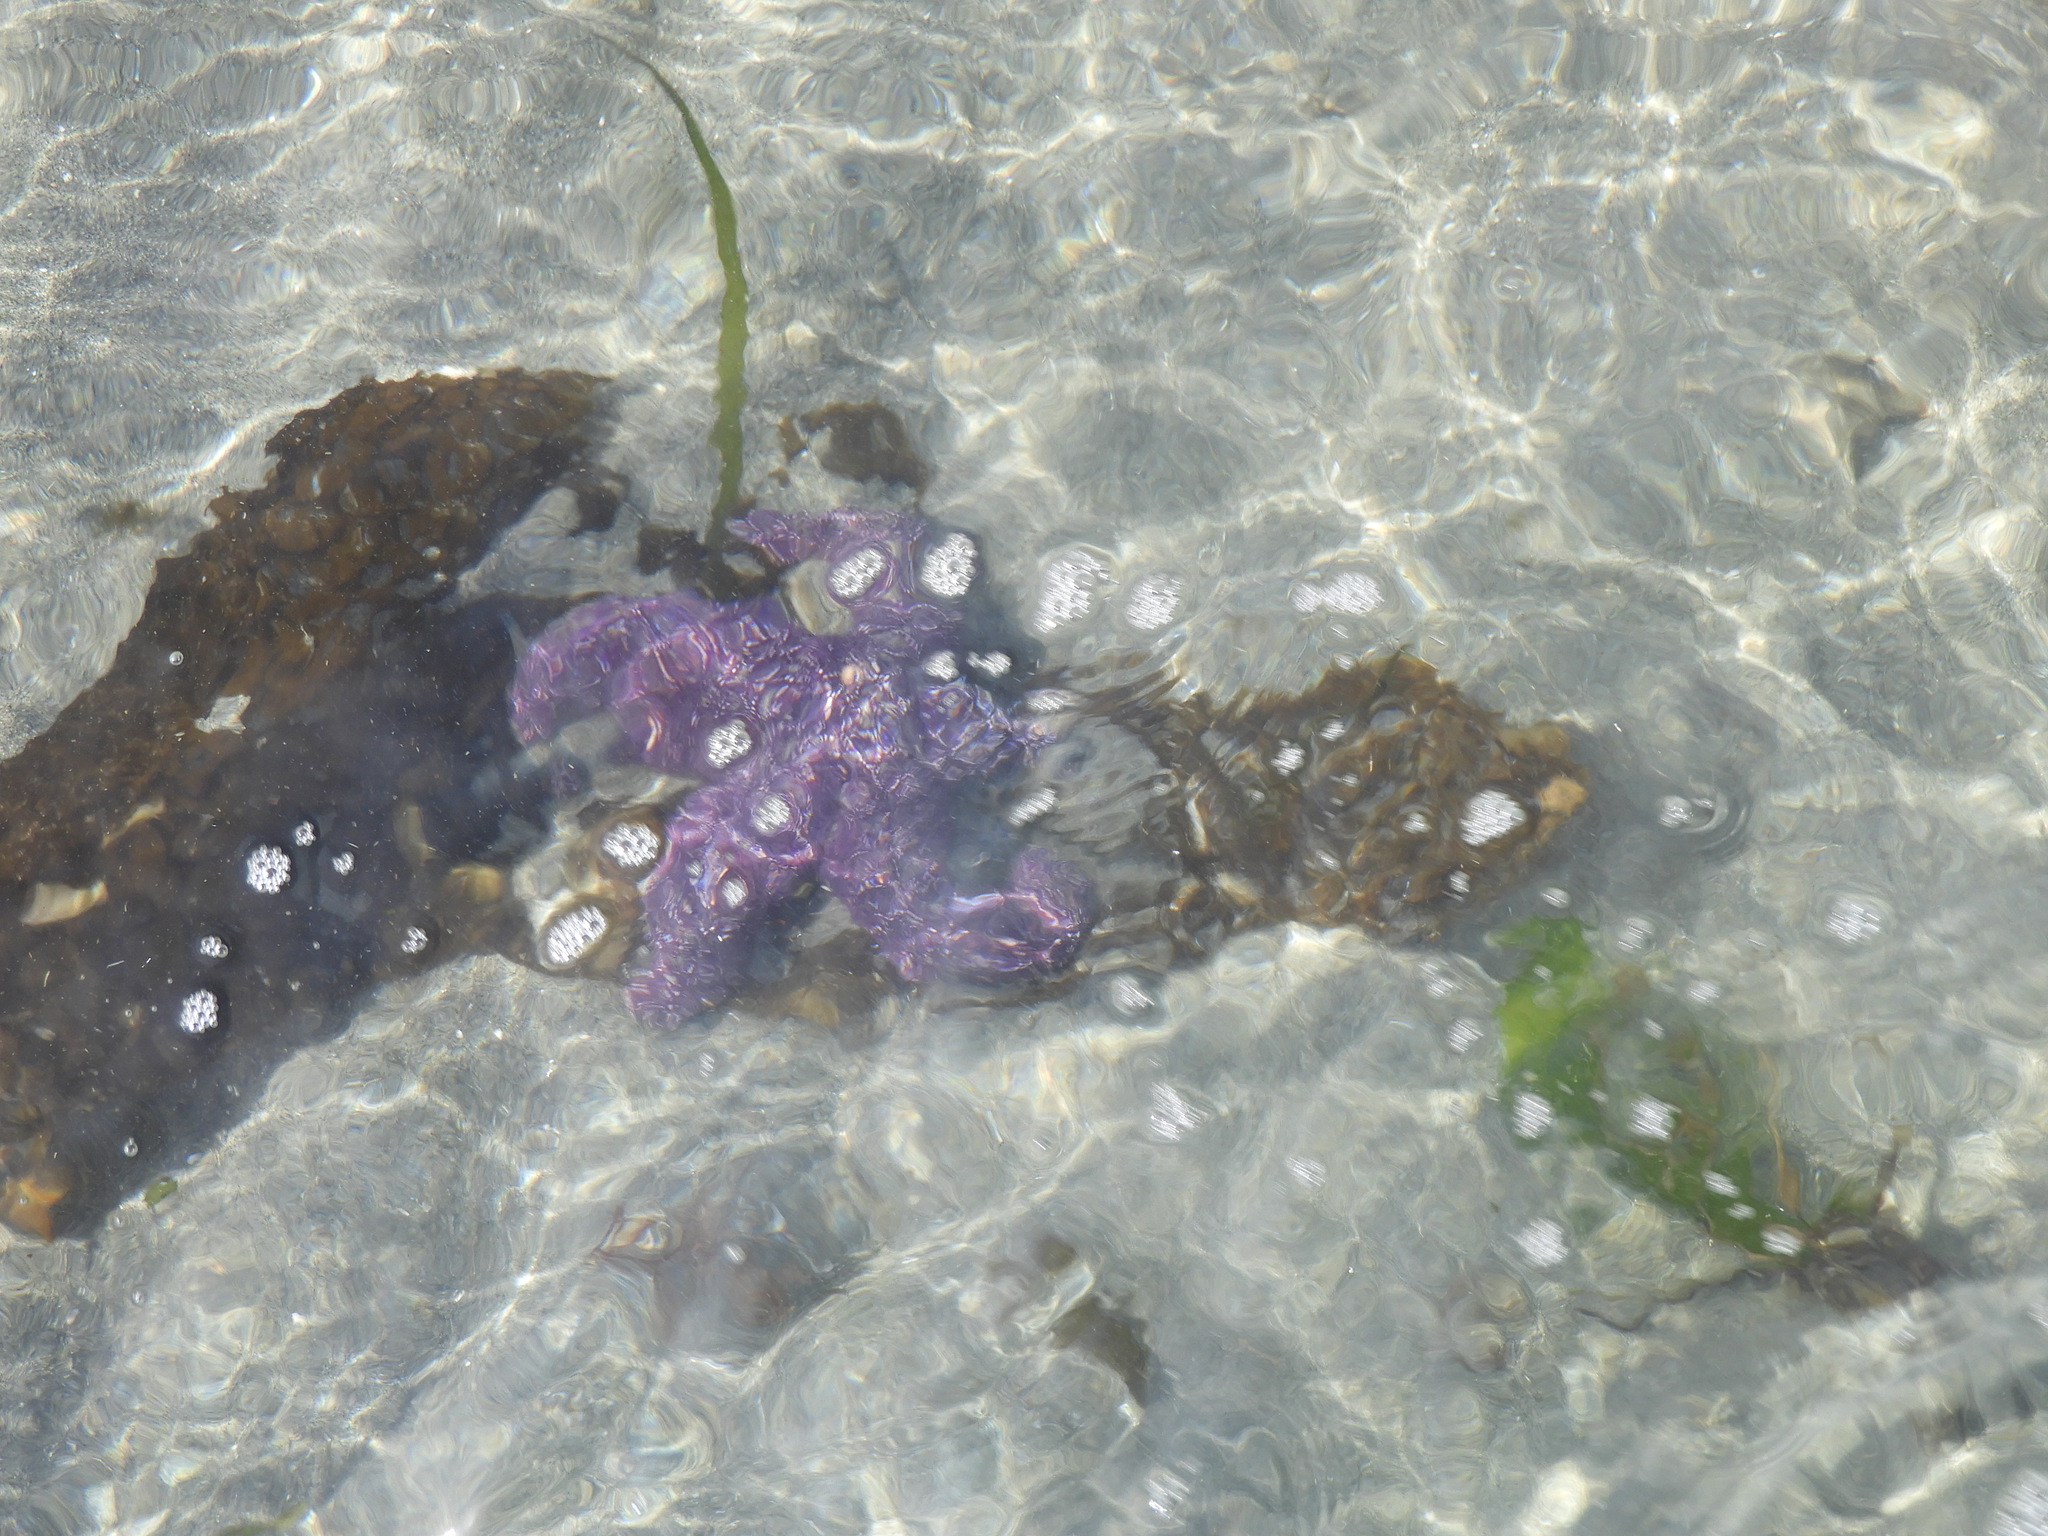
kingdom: Animalia
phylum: Echinodermata
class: Asteroidea
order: Forcipulatida
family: Asteriidae
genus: Pisaster
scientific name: Pisaster ochraceus
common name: Ochre stars
